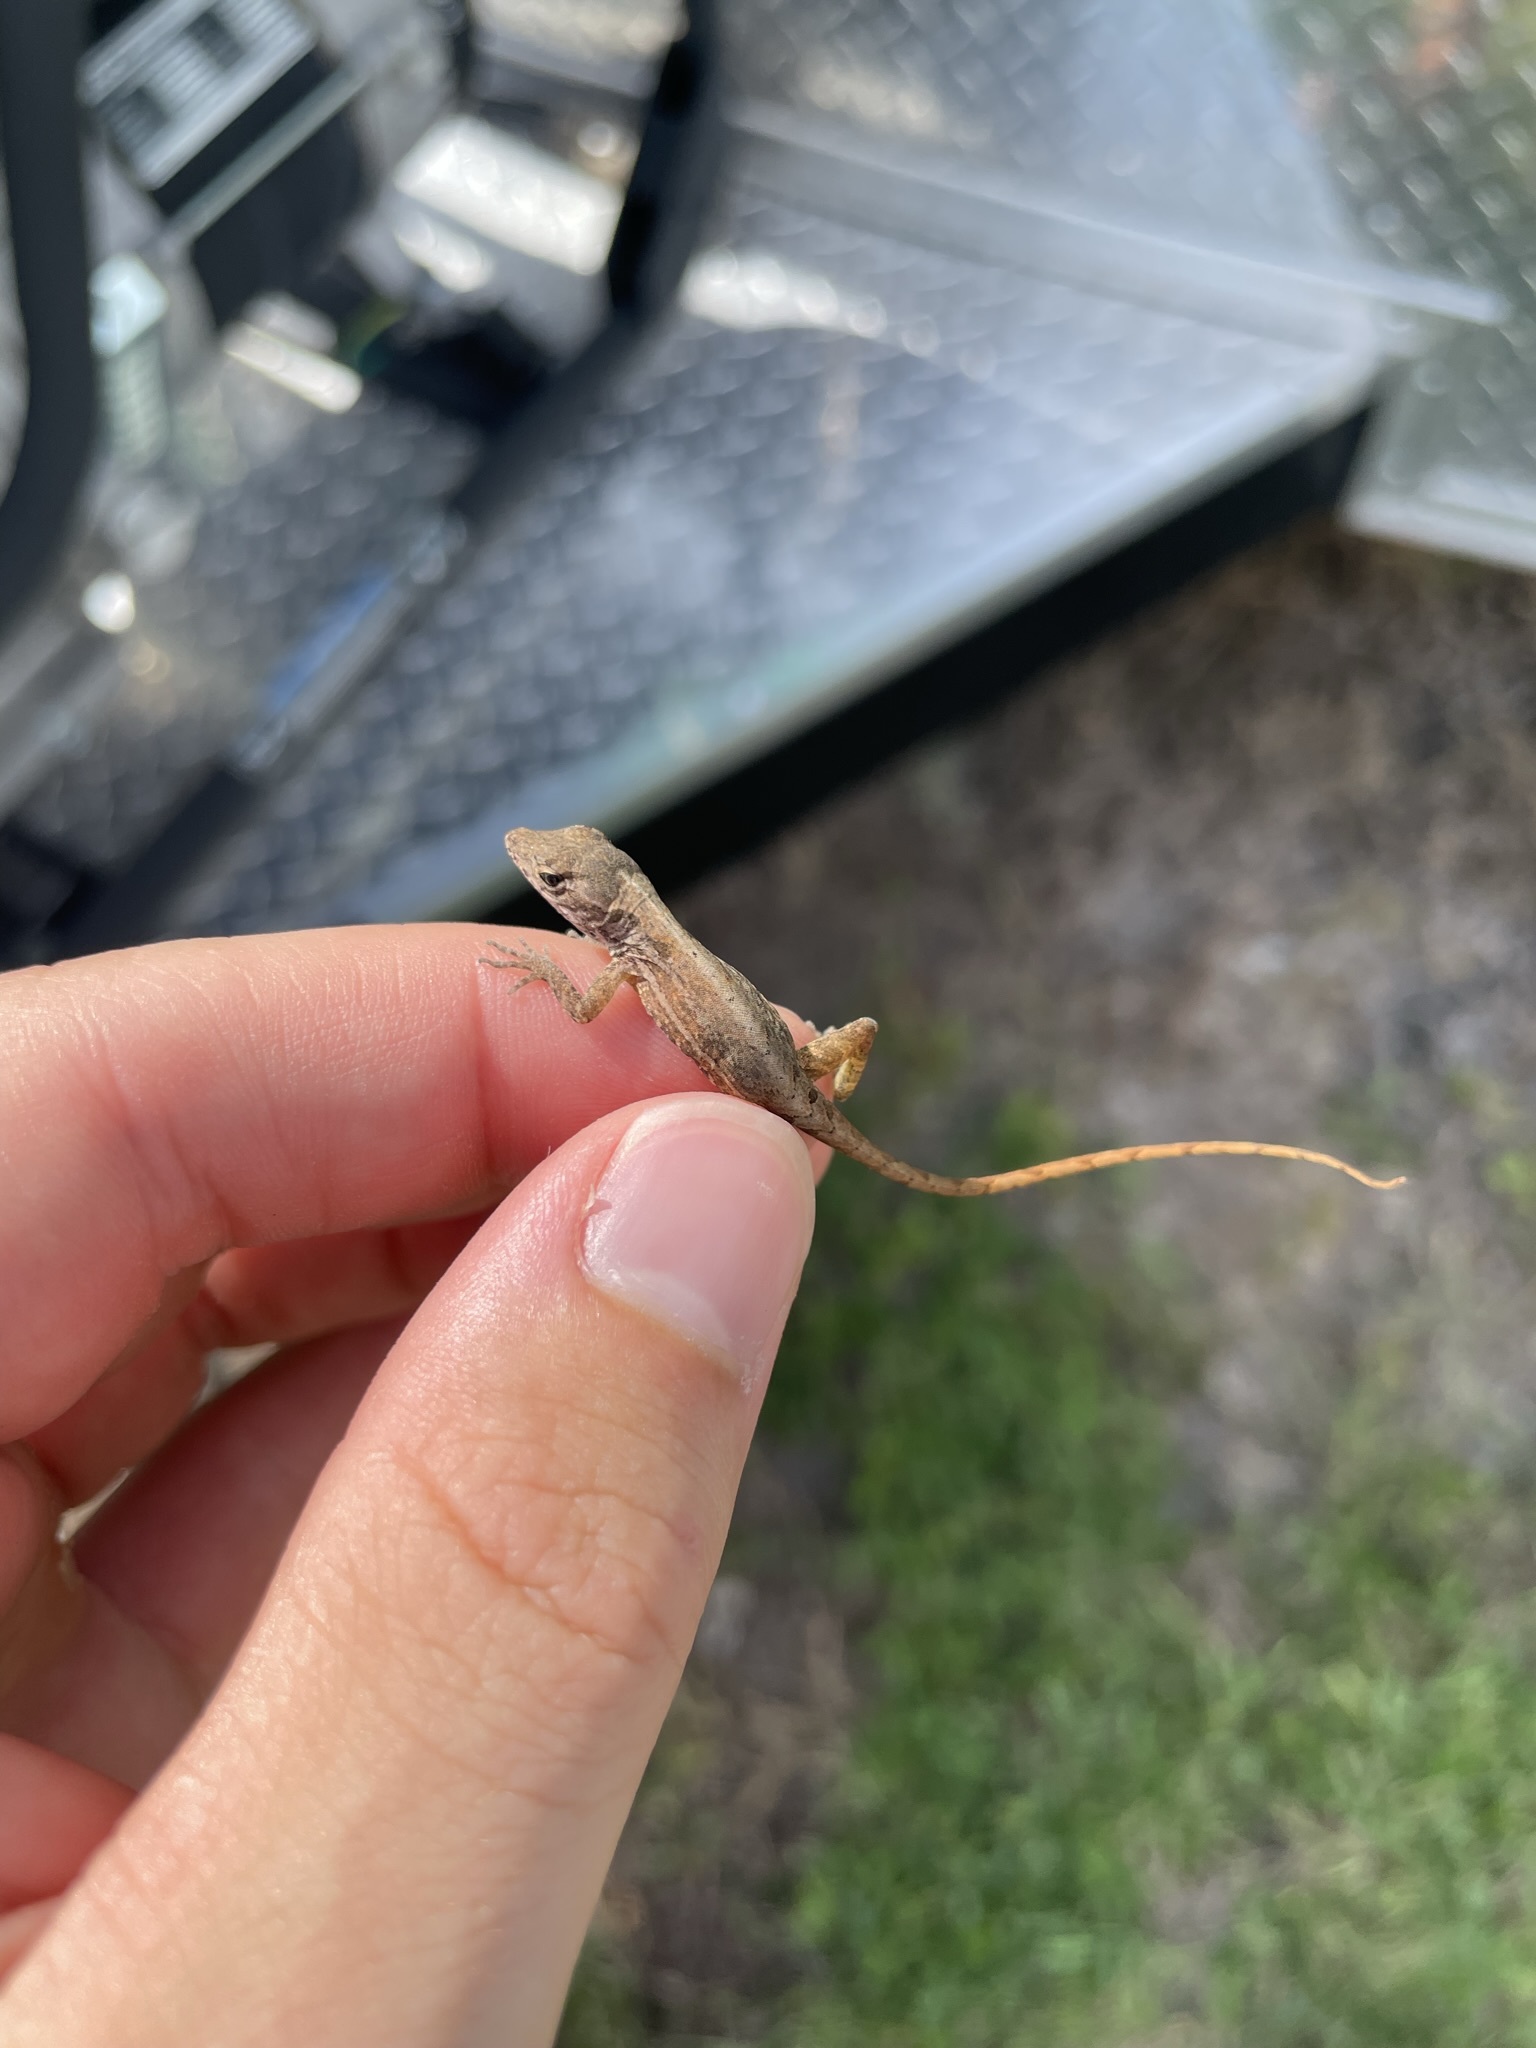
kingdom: Animalia
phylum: Chordata
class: Squamata
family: Dactyloidae
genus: Anolis
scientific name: Anolis sagrei
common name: Brown anole
